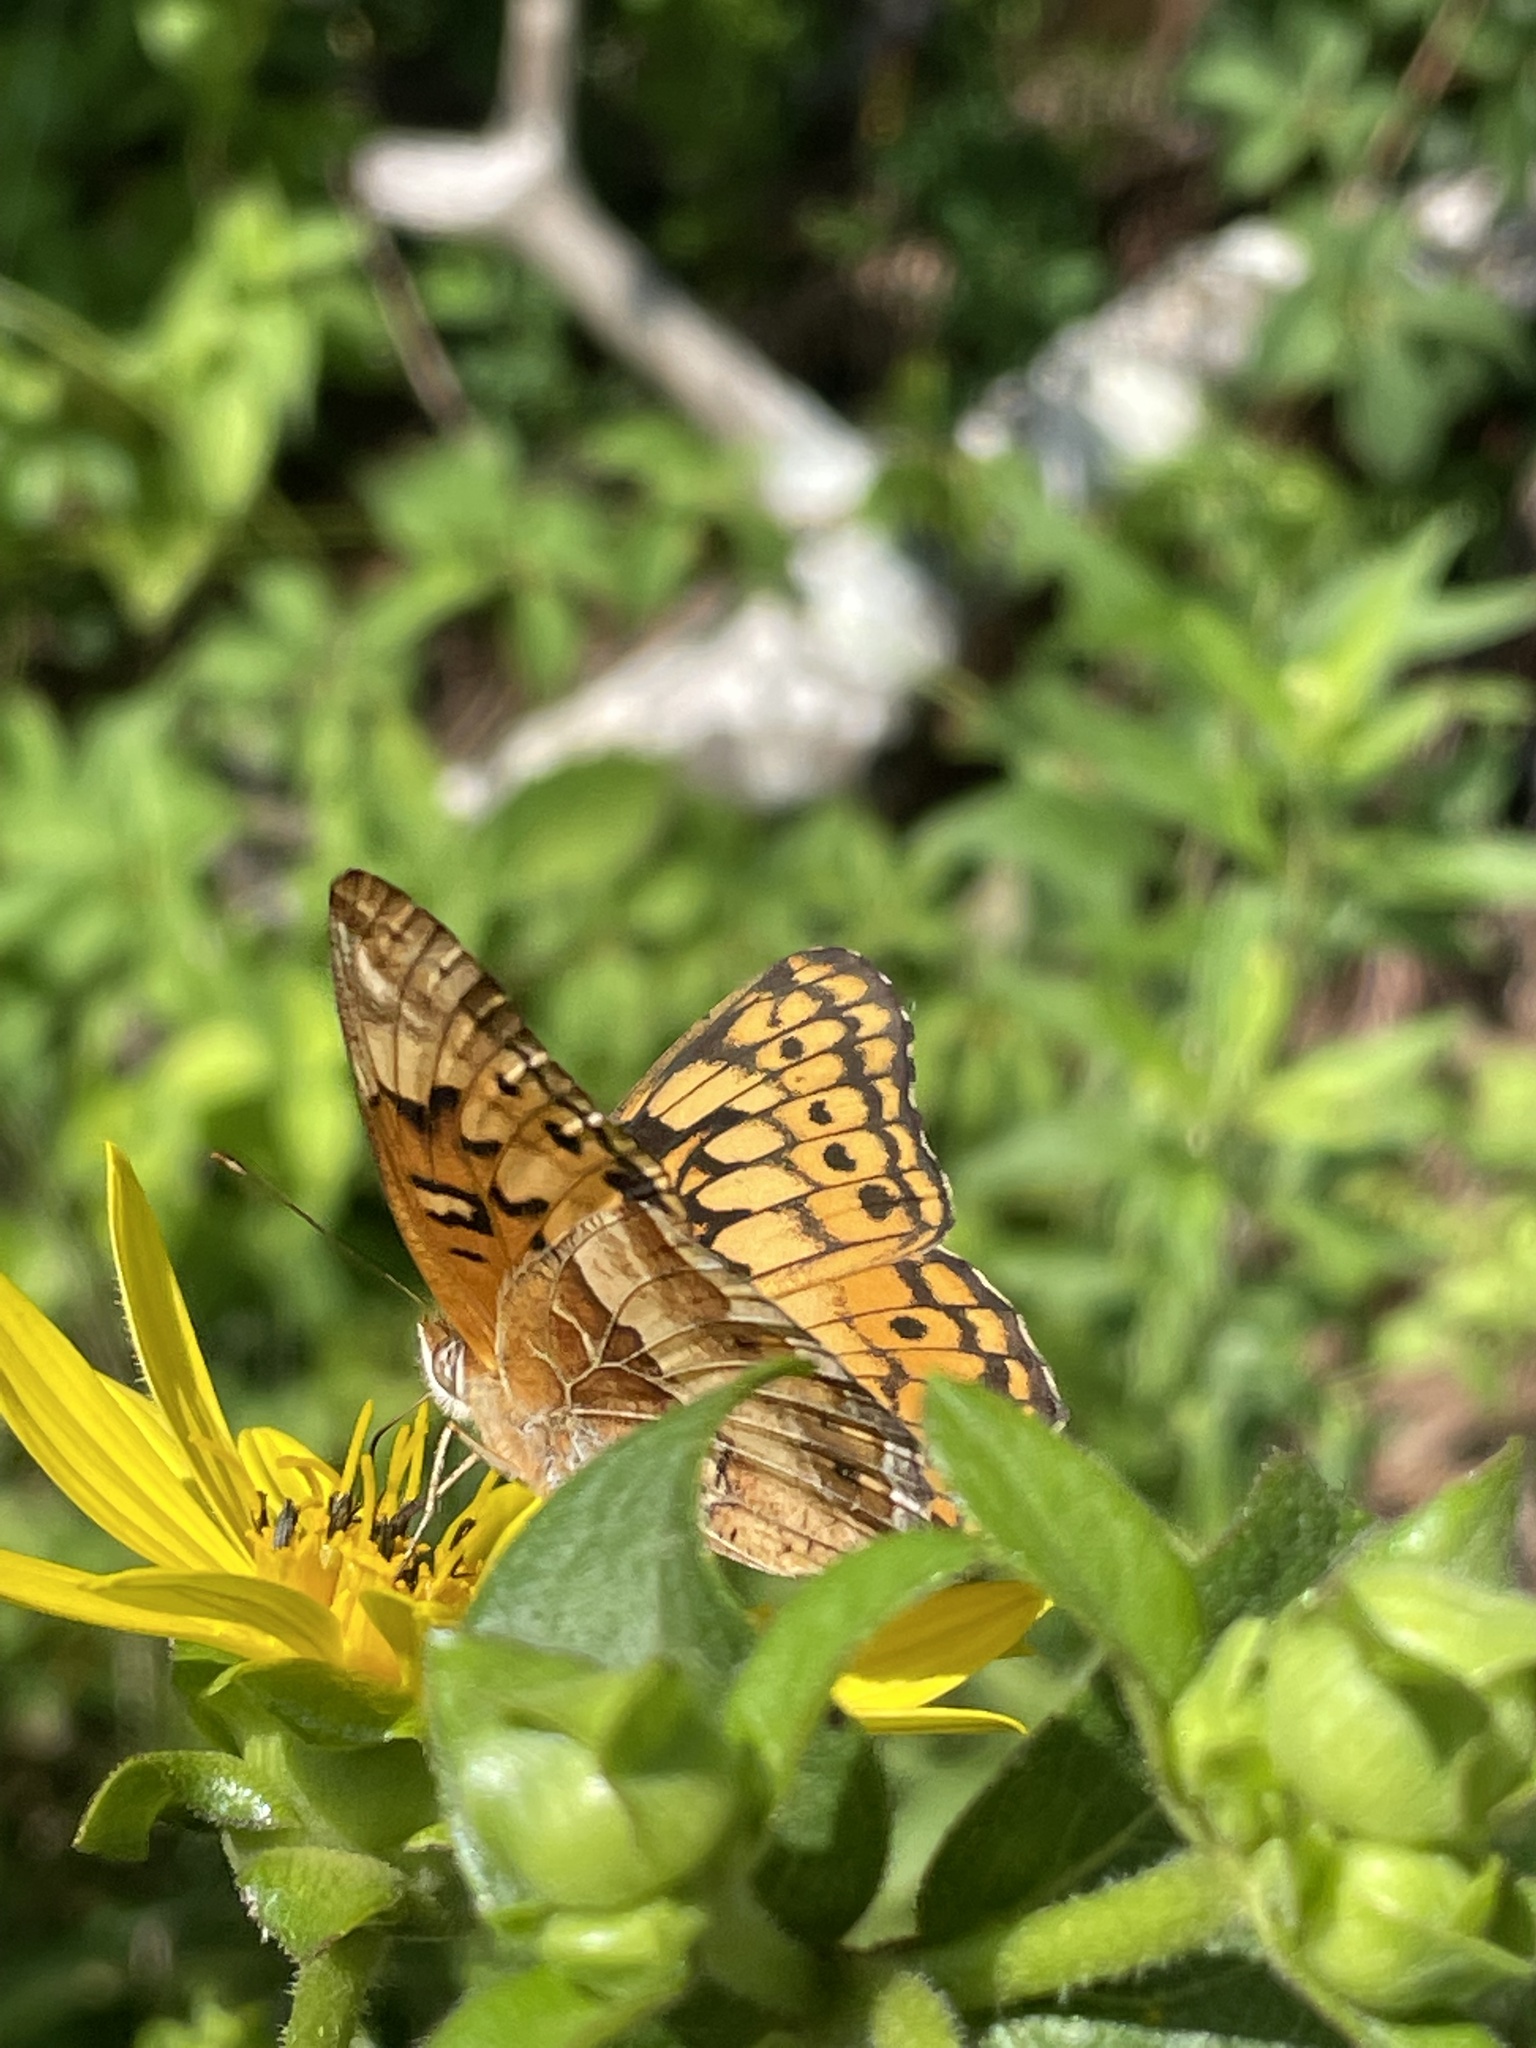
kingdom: Animalia
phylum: Arthropoda
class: Insecta
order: Lepidoptera
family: Nymphalidae
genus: Euptoieta
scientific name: Euptoieta claudia
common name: Variegated fritillary
